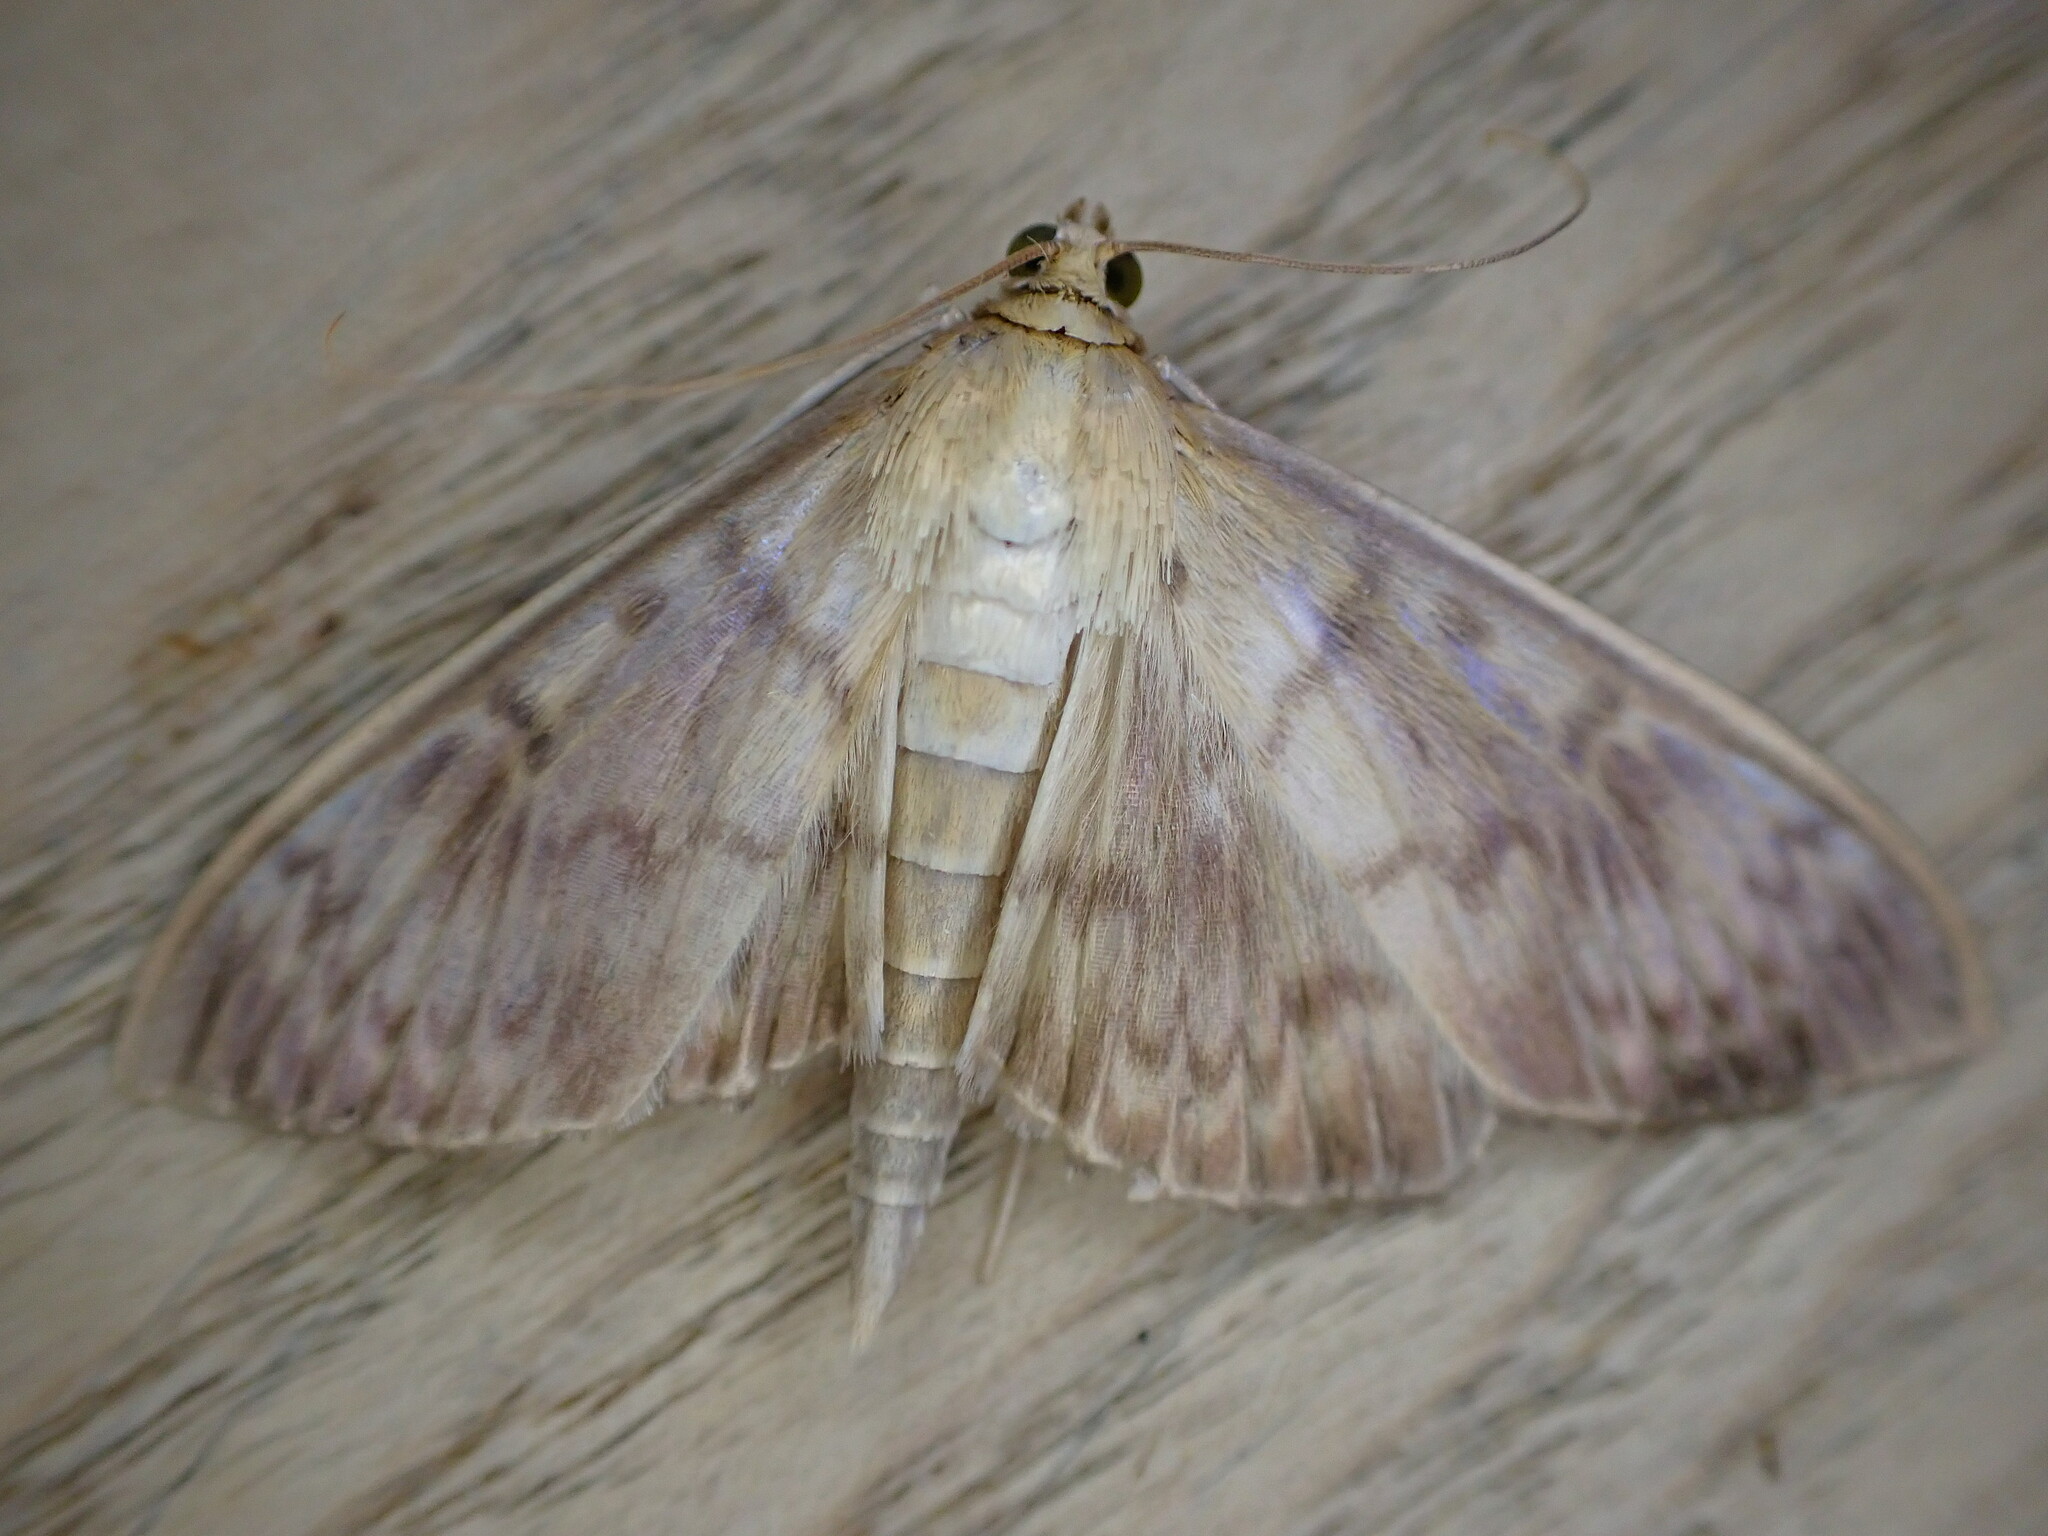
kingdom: Animalia
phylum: Arthropoda
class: Insecta
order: Lepidoptera
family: Crambidae
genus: Patania
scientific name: Patania ruralis
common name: Mother of pearl
